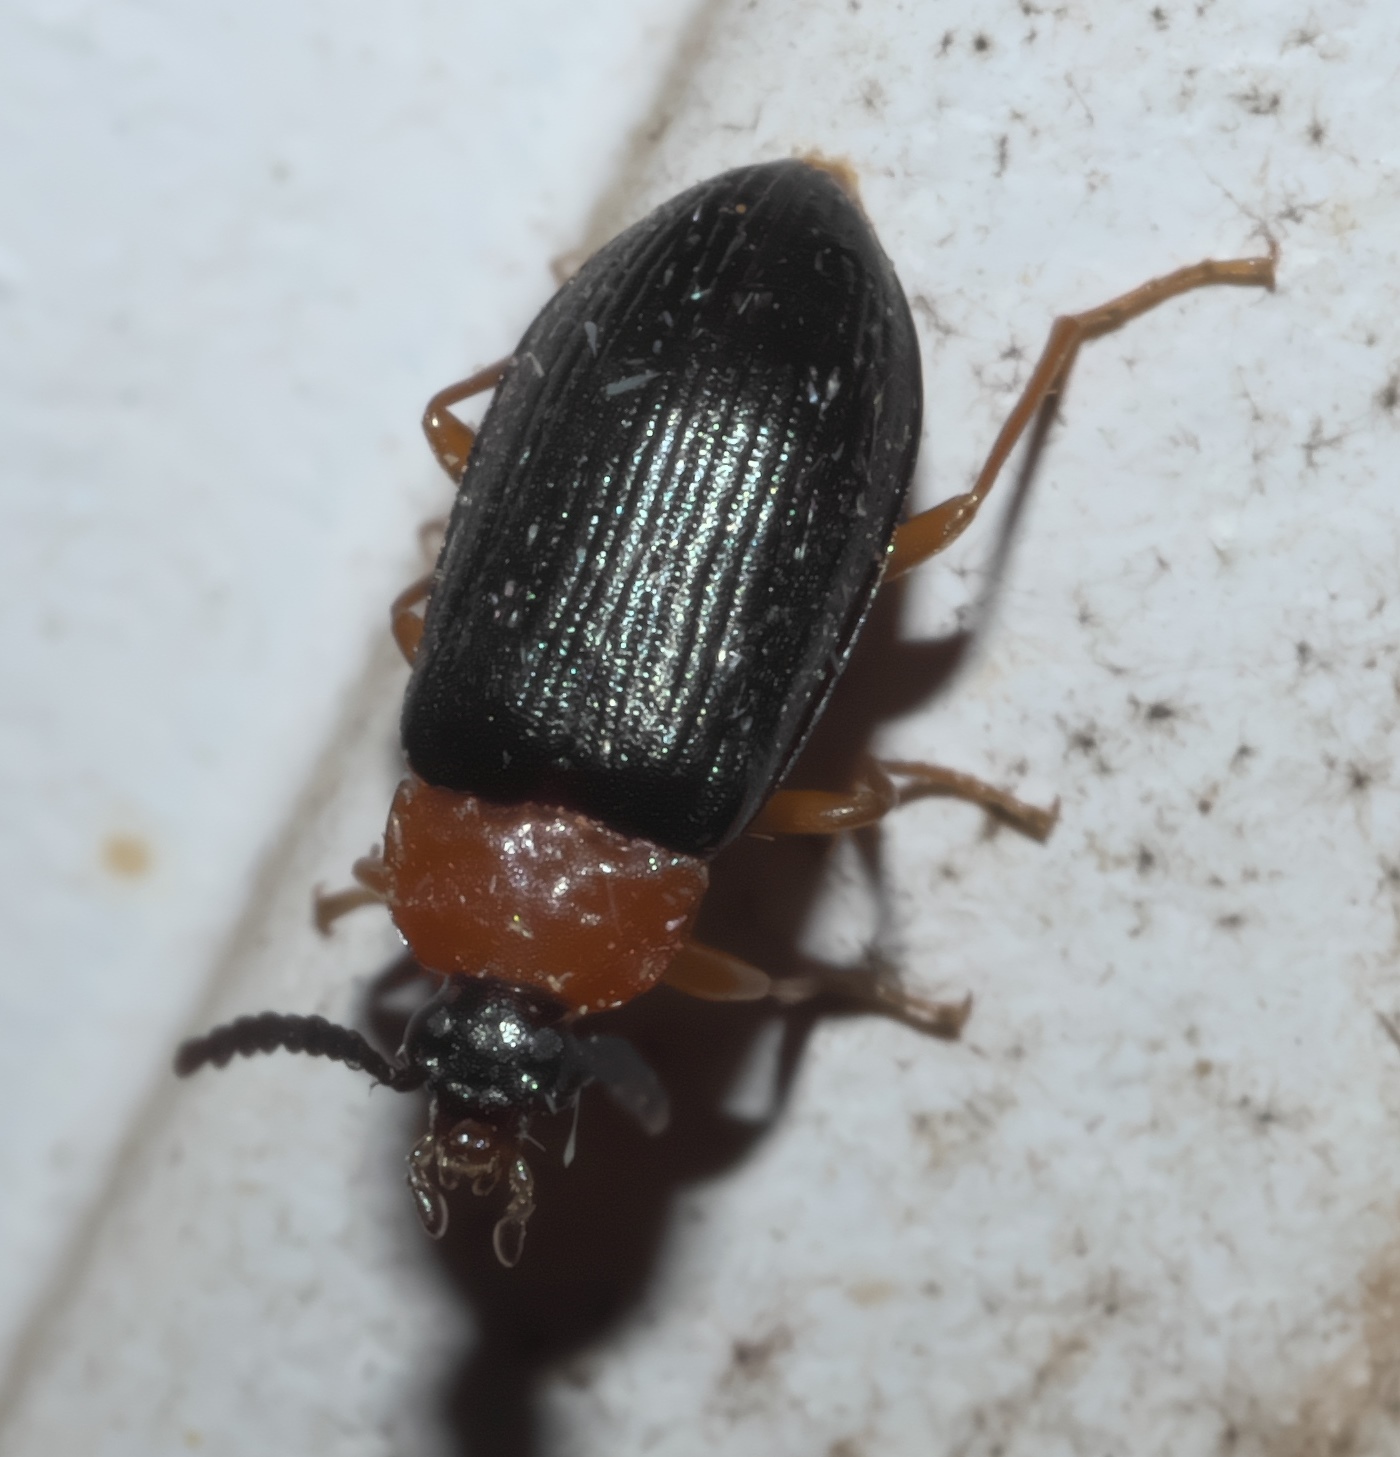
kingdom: Animalia
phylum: Arthropoda
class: Insecta
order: Coleoptera
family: Tenebrionidae
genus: Chromatia
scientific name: Chromatia amoena
